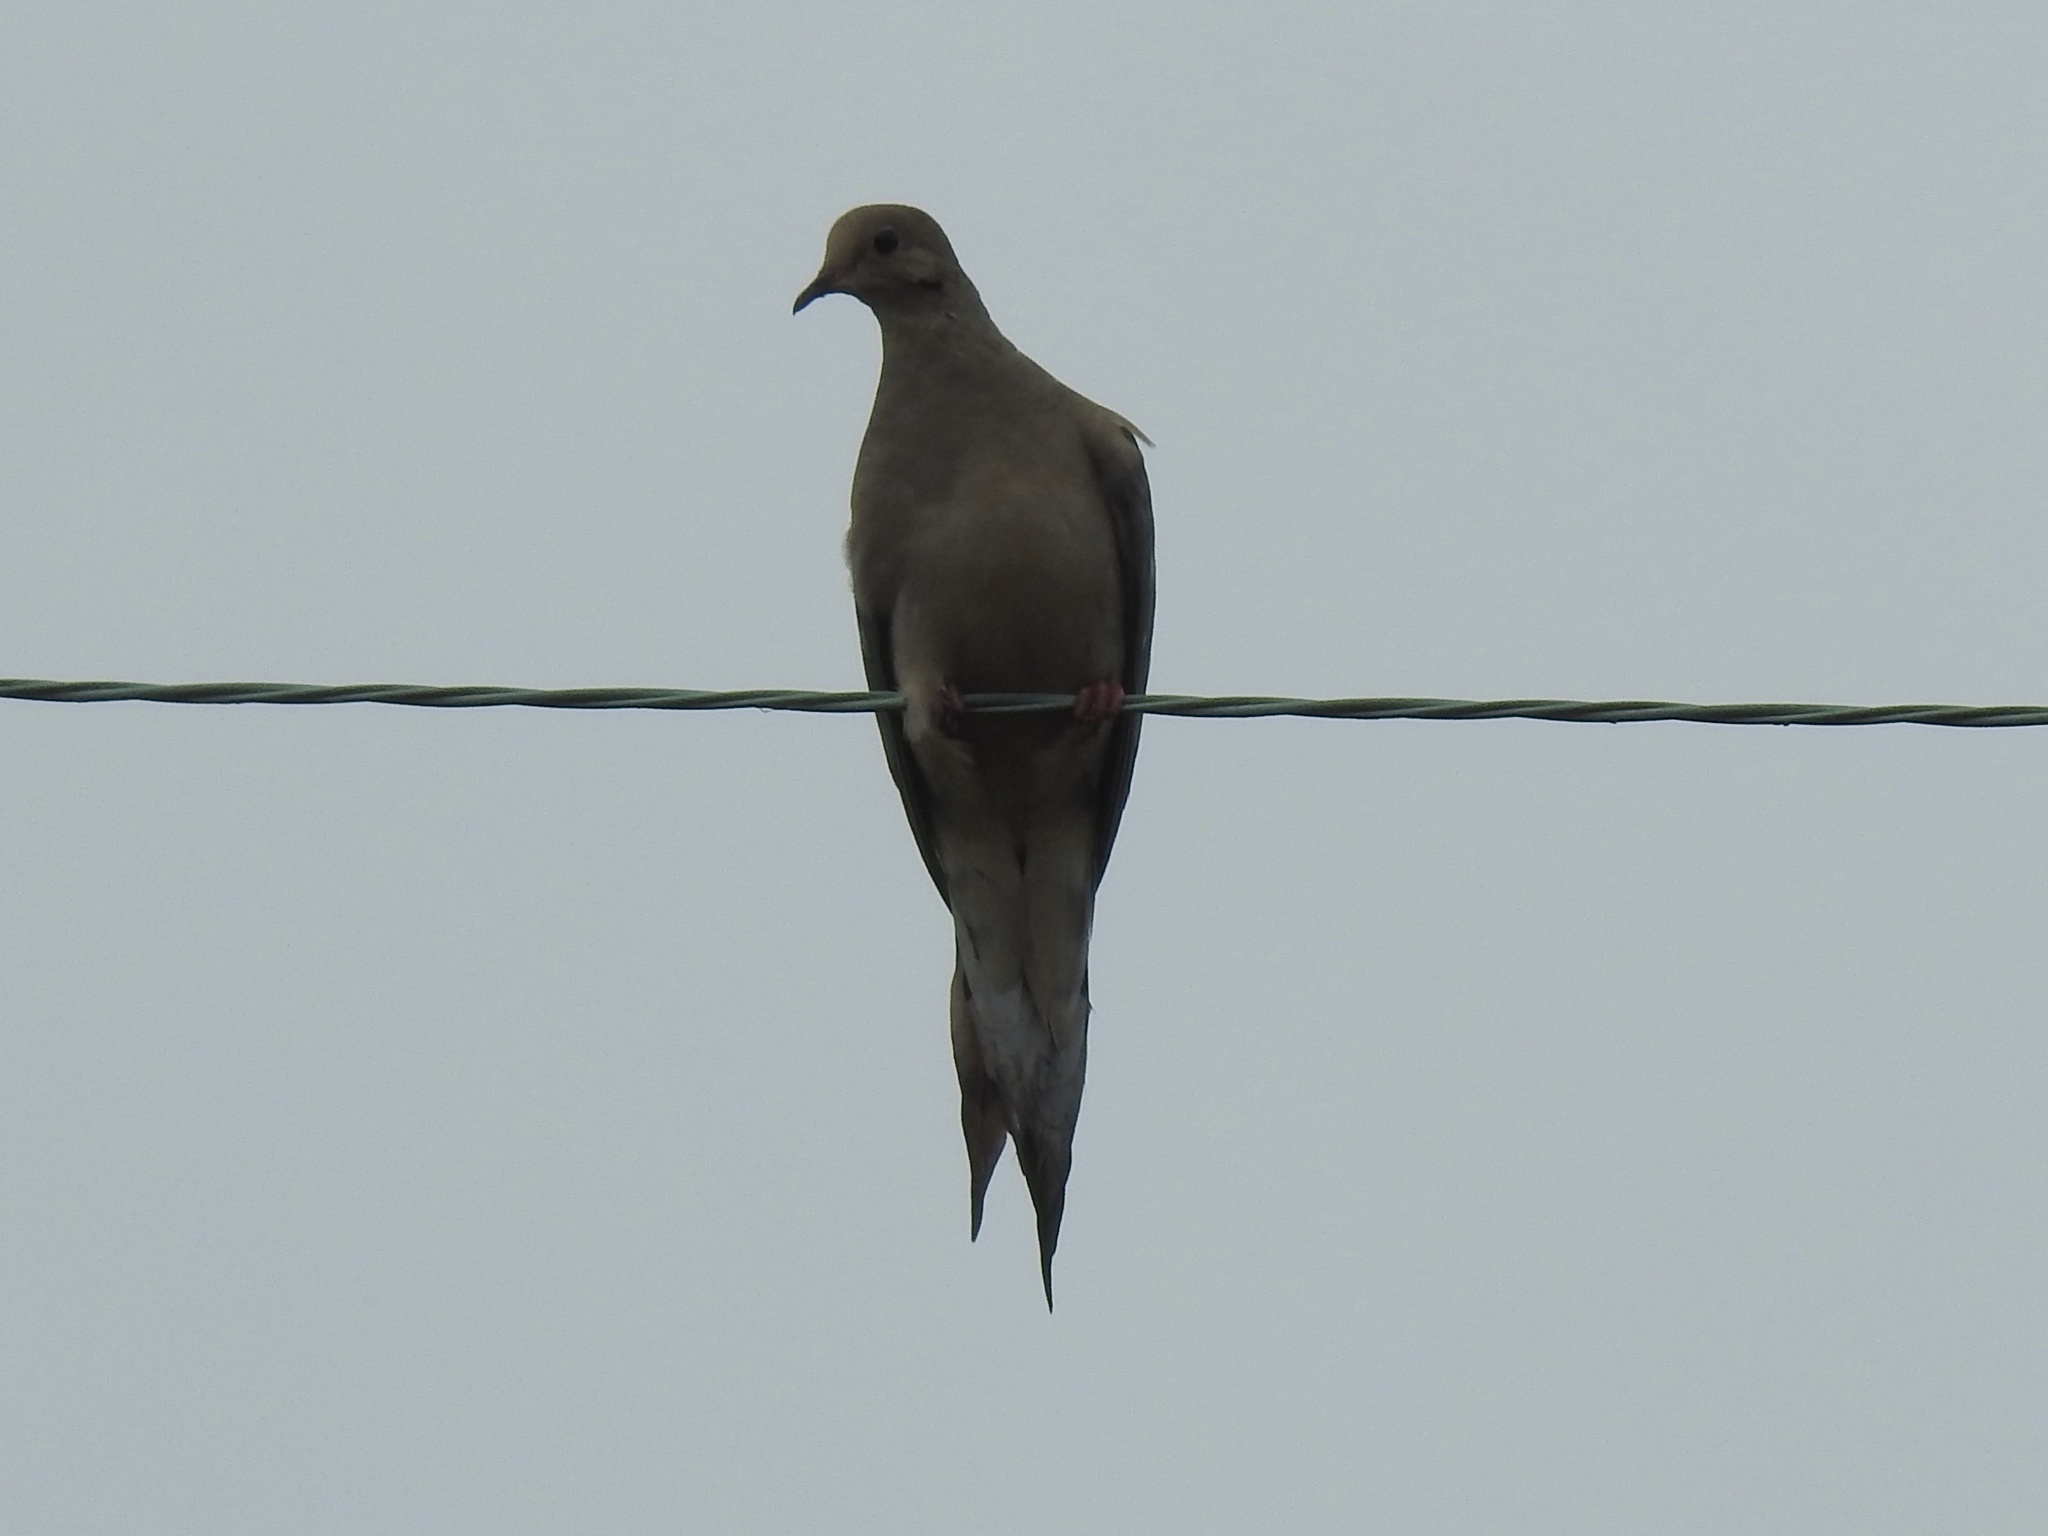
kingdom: Animalia
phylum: Chordata
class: Aves
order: Columbiformes
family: Columbidae
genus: Zenaida
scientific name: Zenaida macroura
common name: Mourning dove
